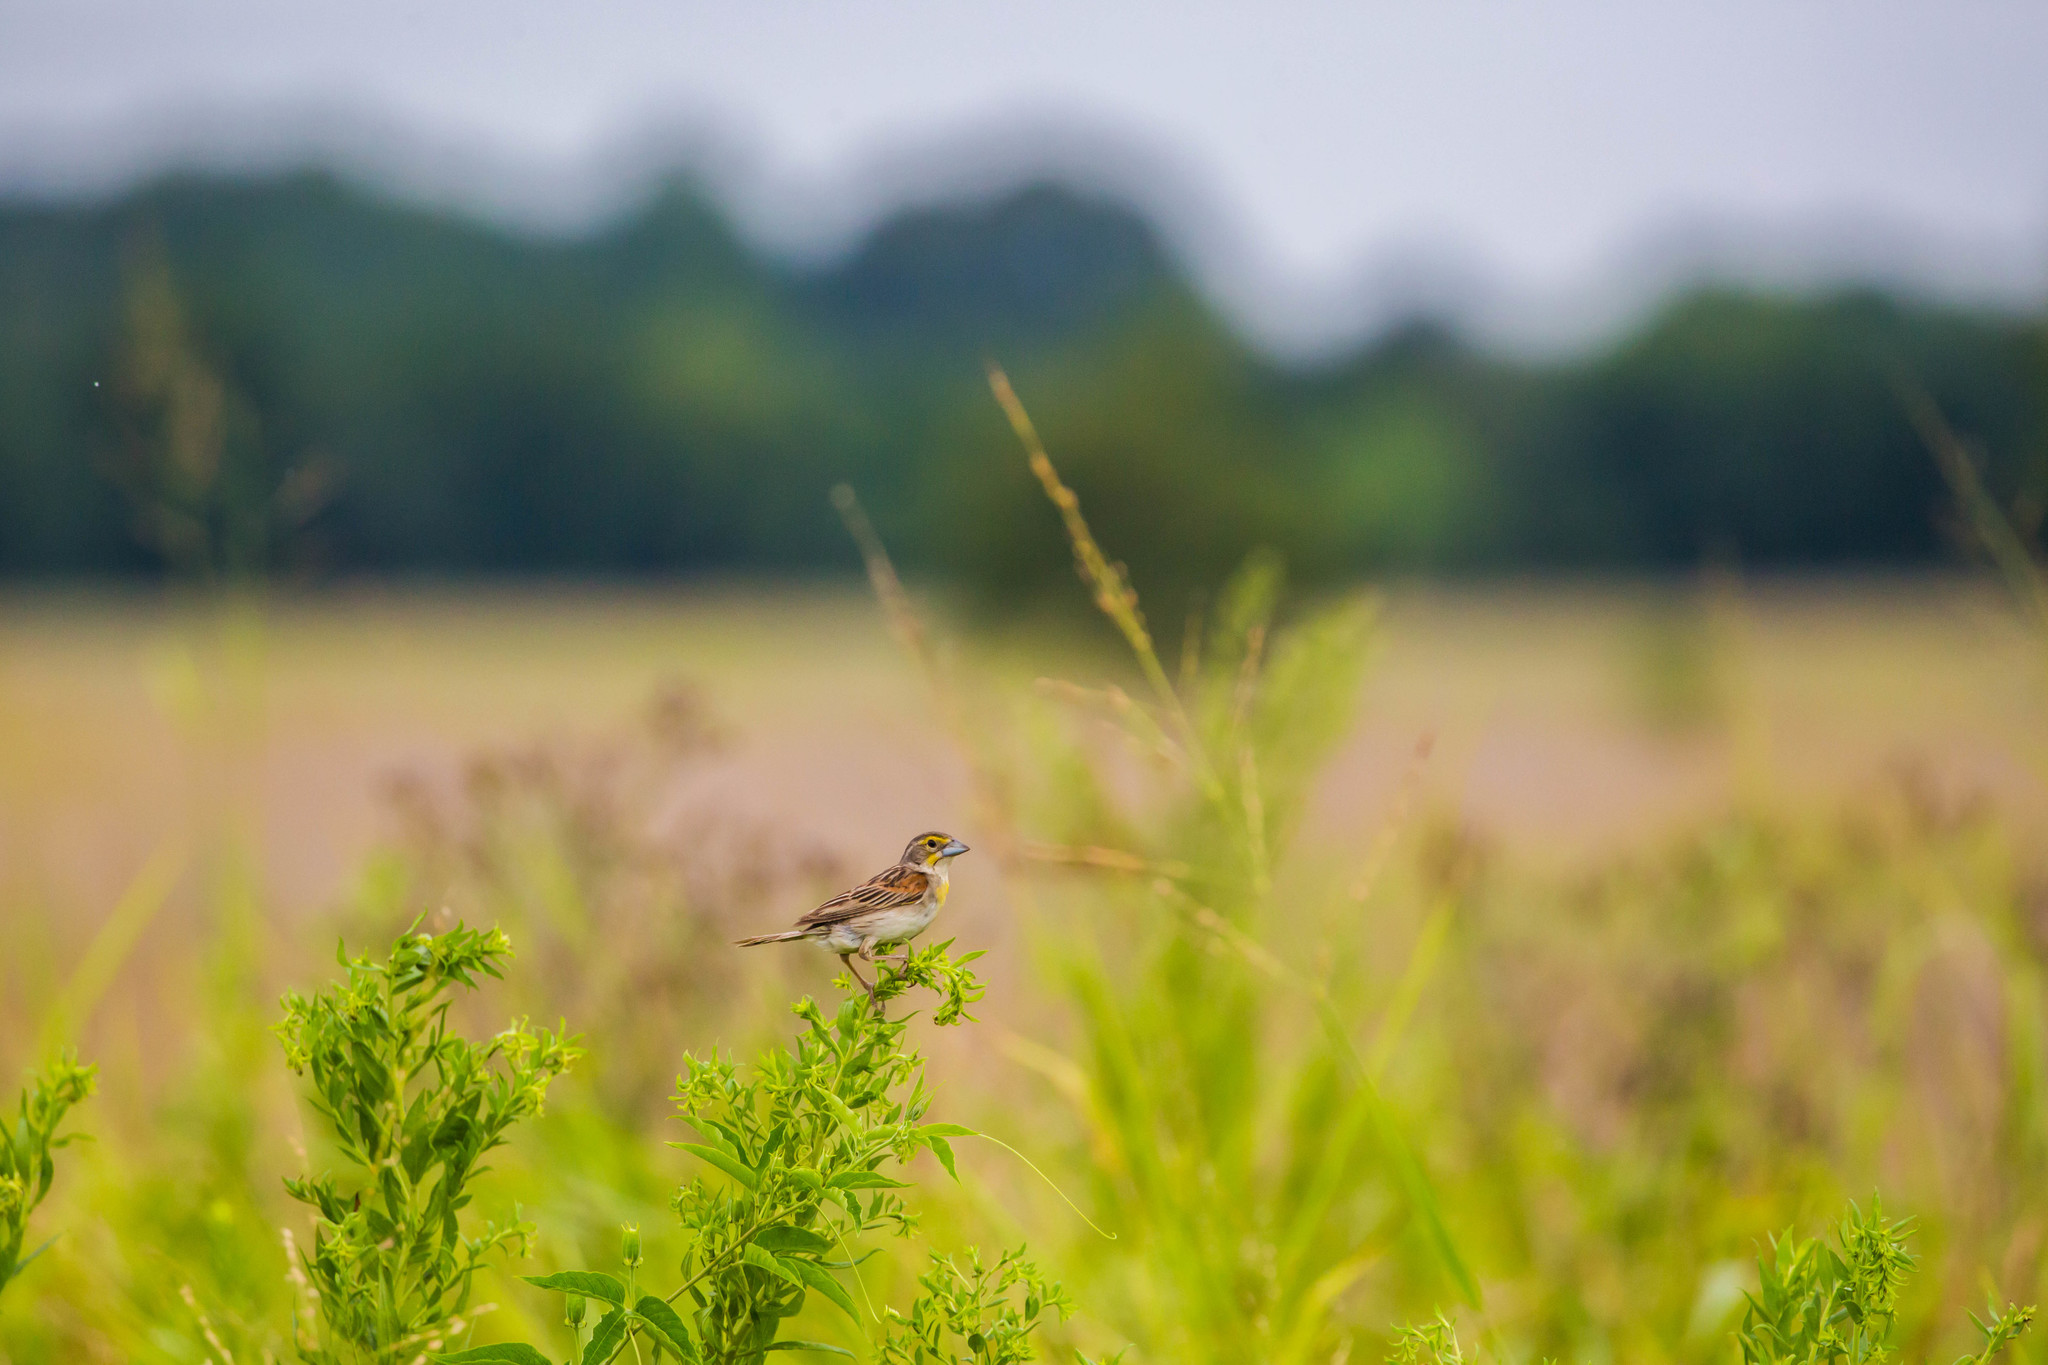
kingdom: Animalia
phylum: Chordata
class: Aves
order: Passeriformes
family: Cardinalidae
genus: Spiza
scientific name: Spiza americana
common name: Dickcissel
